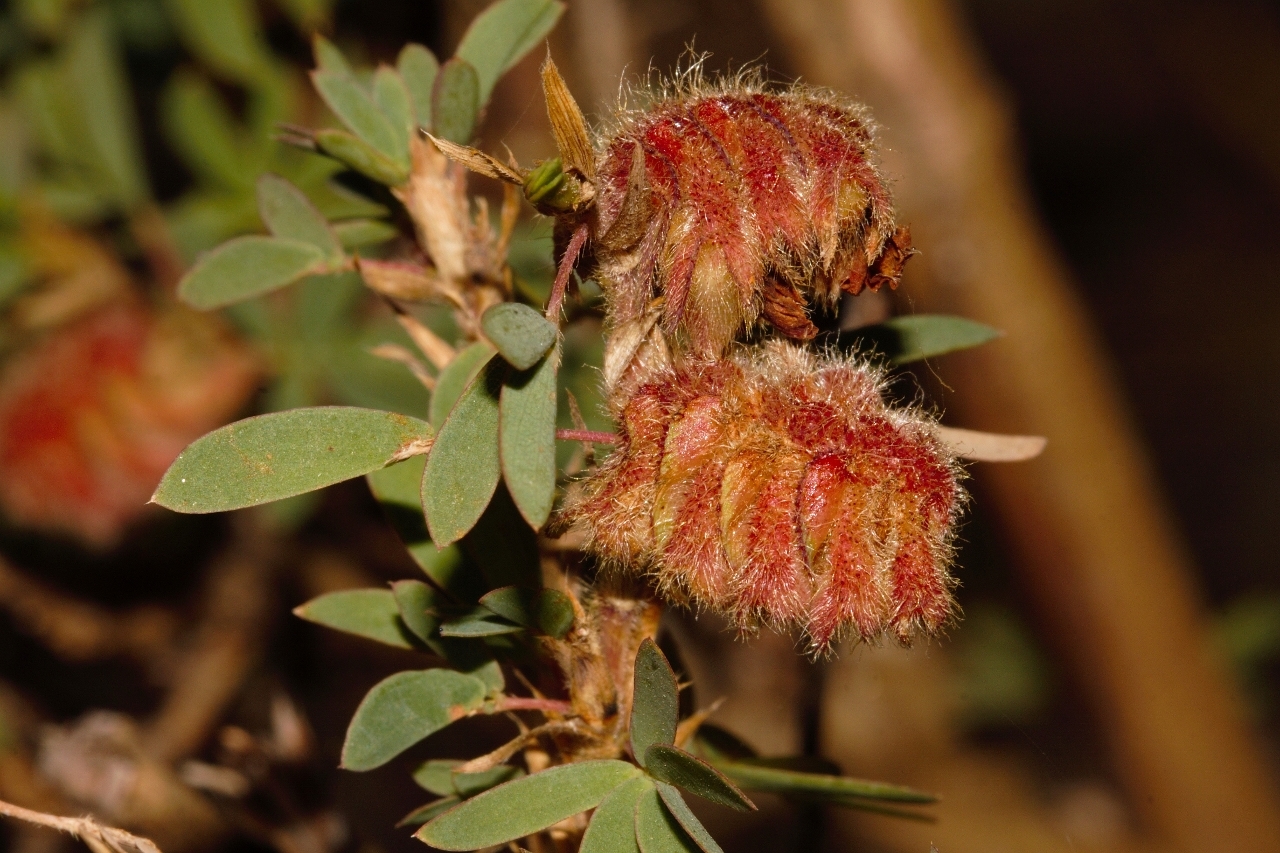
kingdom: Plantae
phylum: Tracheophyta
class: Magnoliopsida
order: Fabales
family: Fabaceae
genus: Kotschya
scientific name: Kotschya strobilantha
